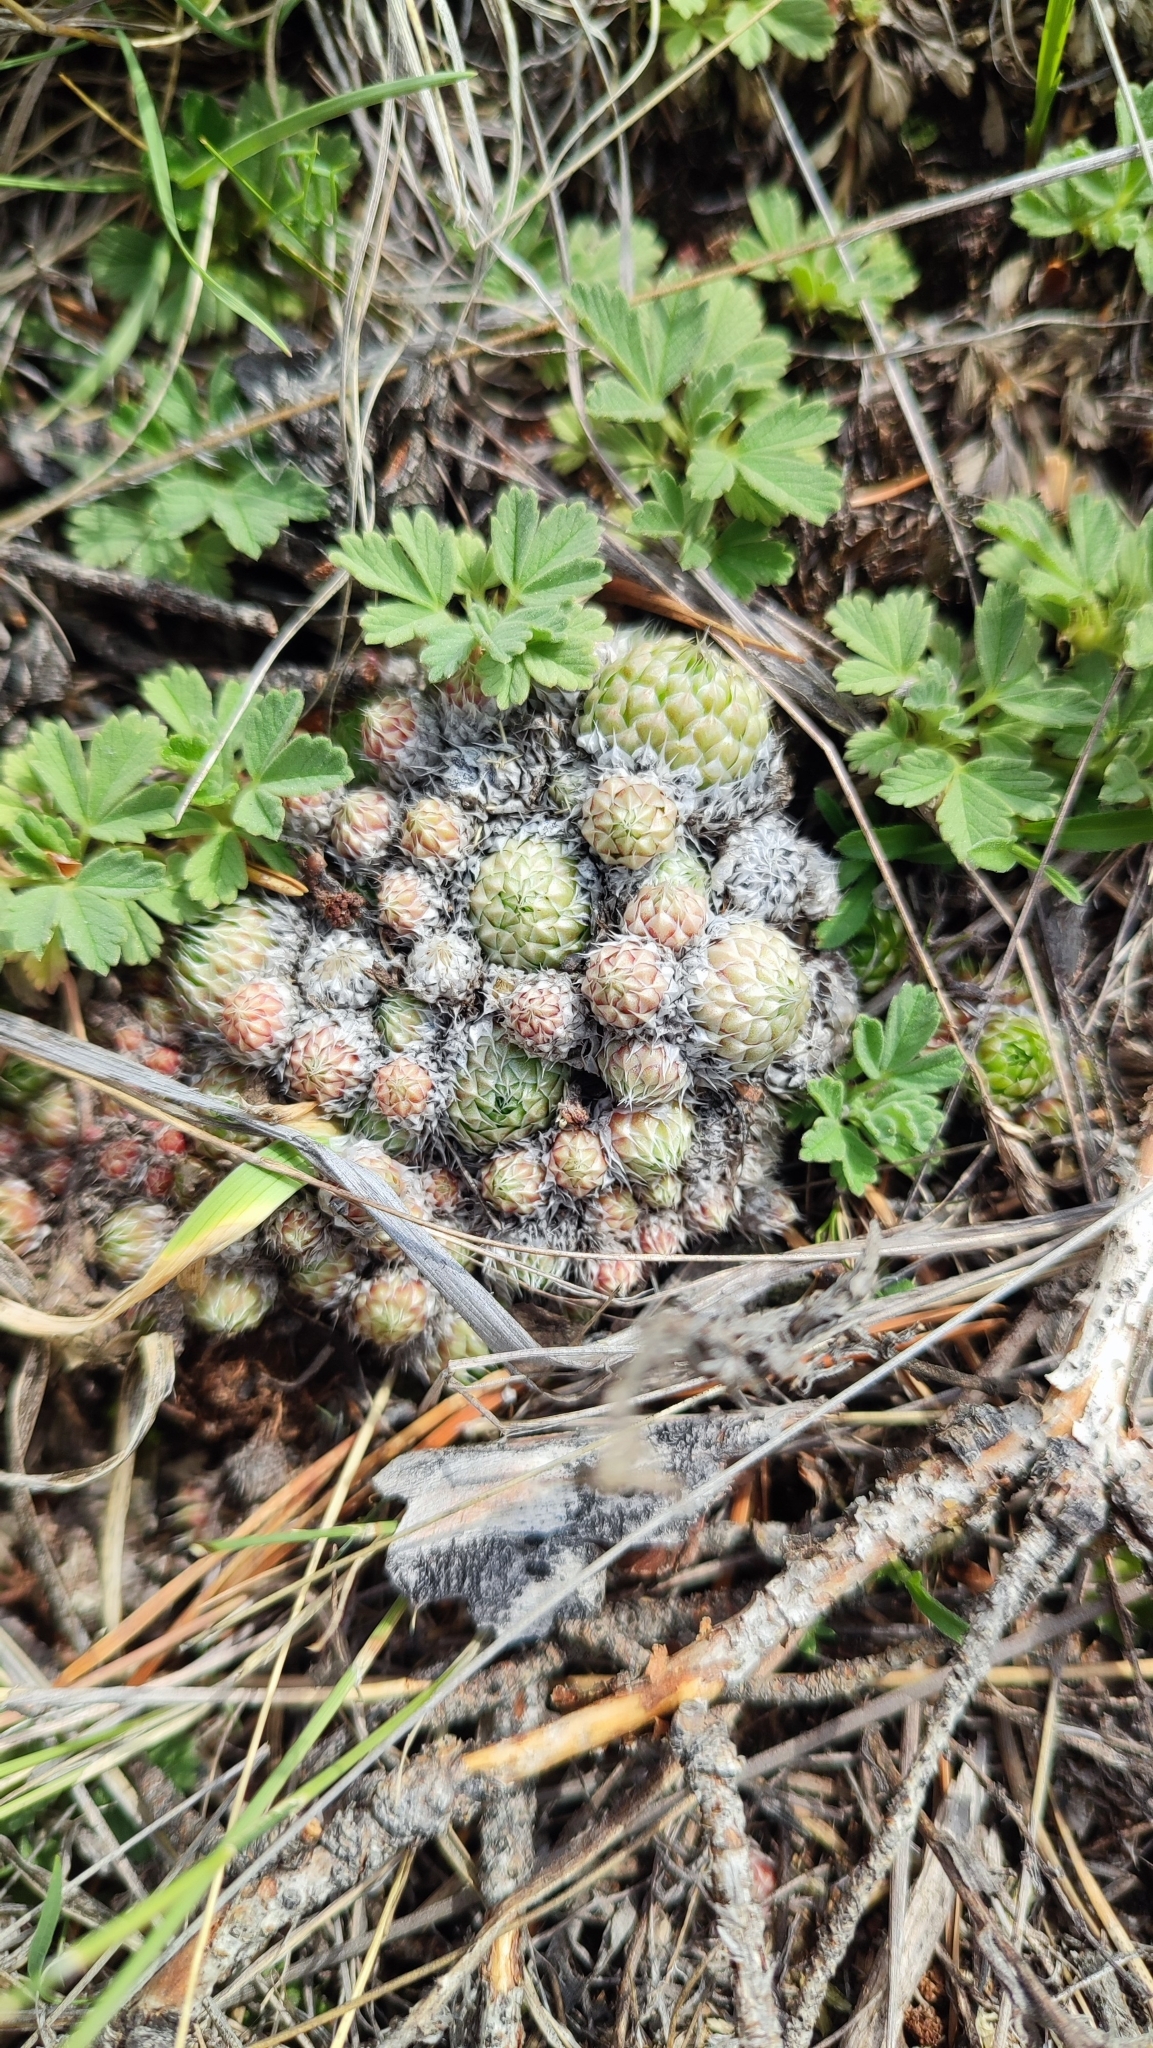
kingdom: Plantae
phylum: Tracheophyta
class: Magnoliopsida
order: Saxifragales
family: Crassulaceae
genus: Orostachys
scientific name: Orostachys spinosa
